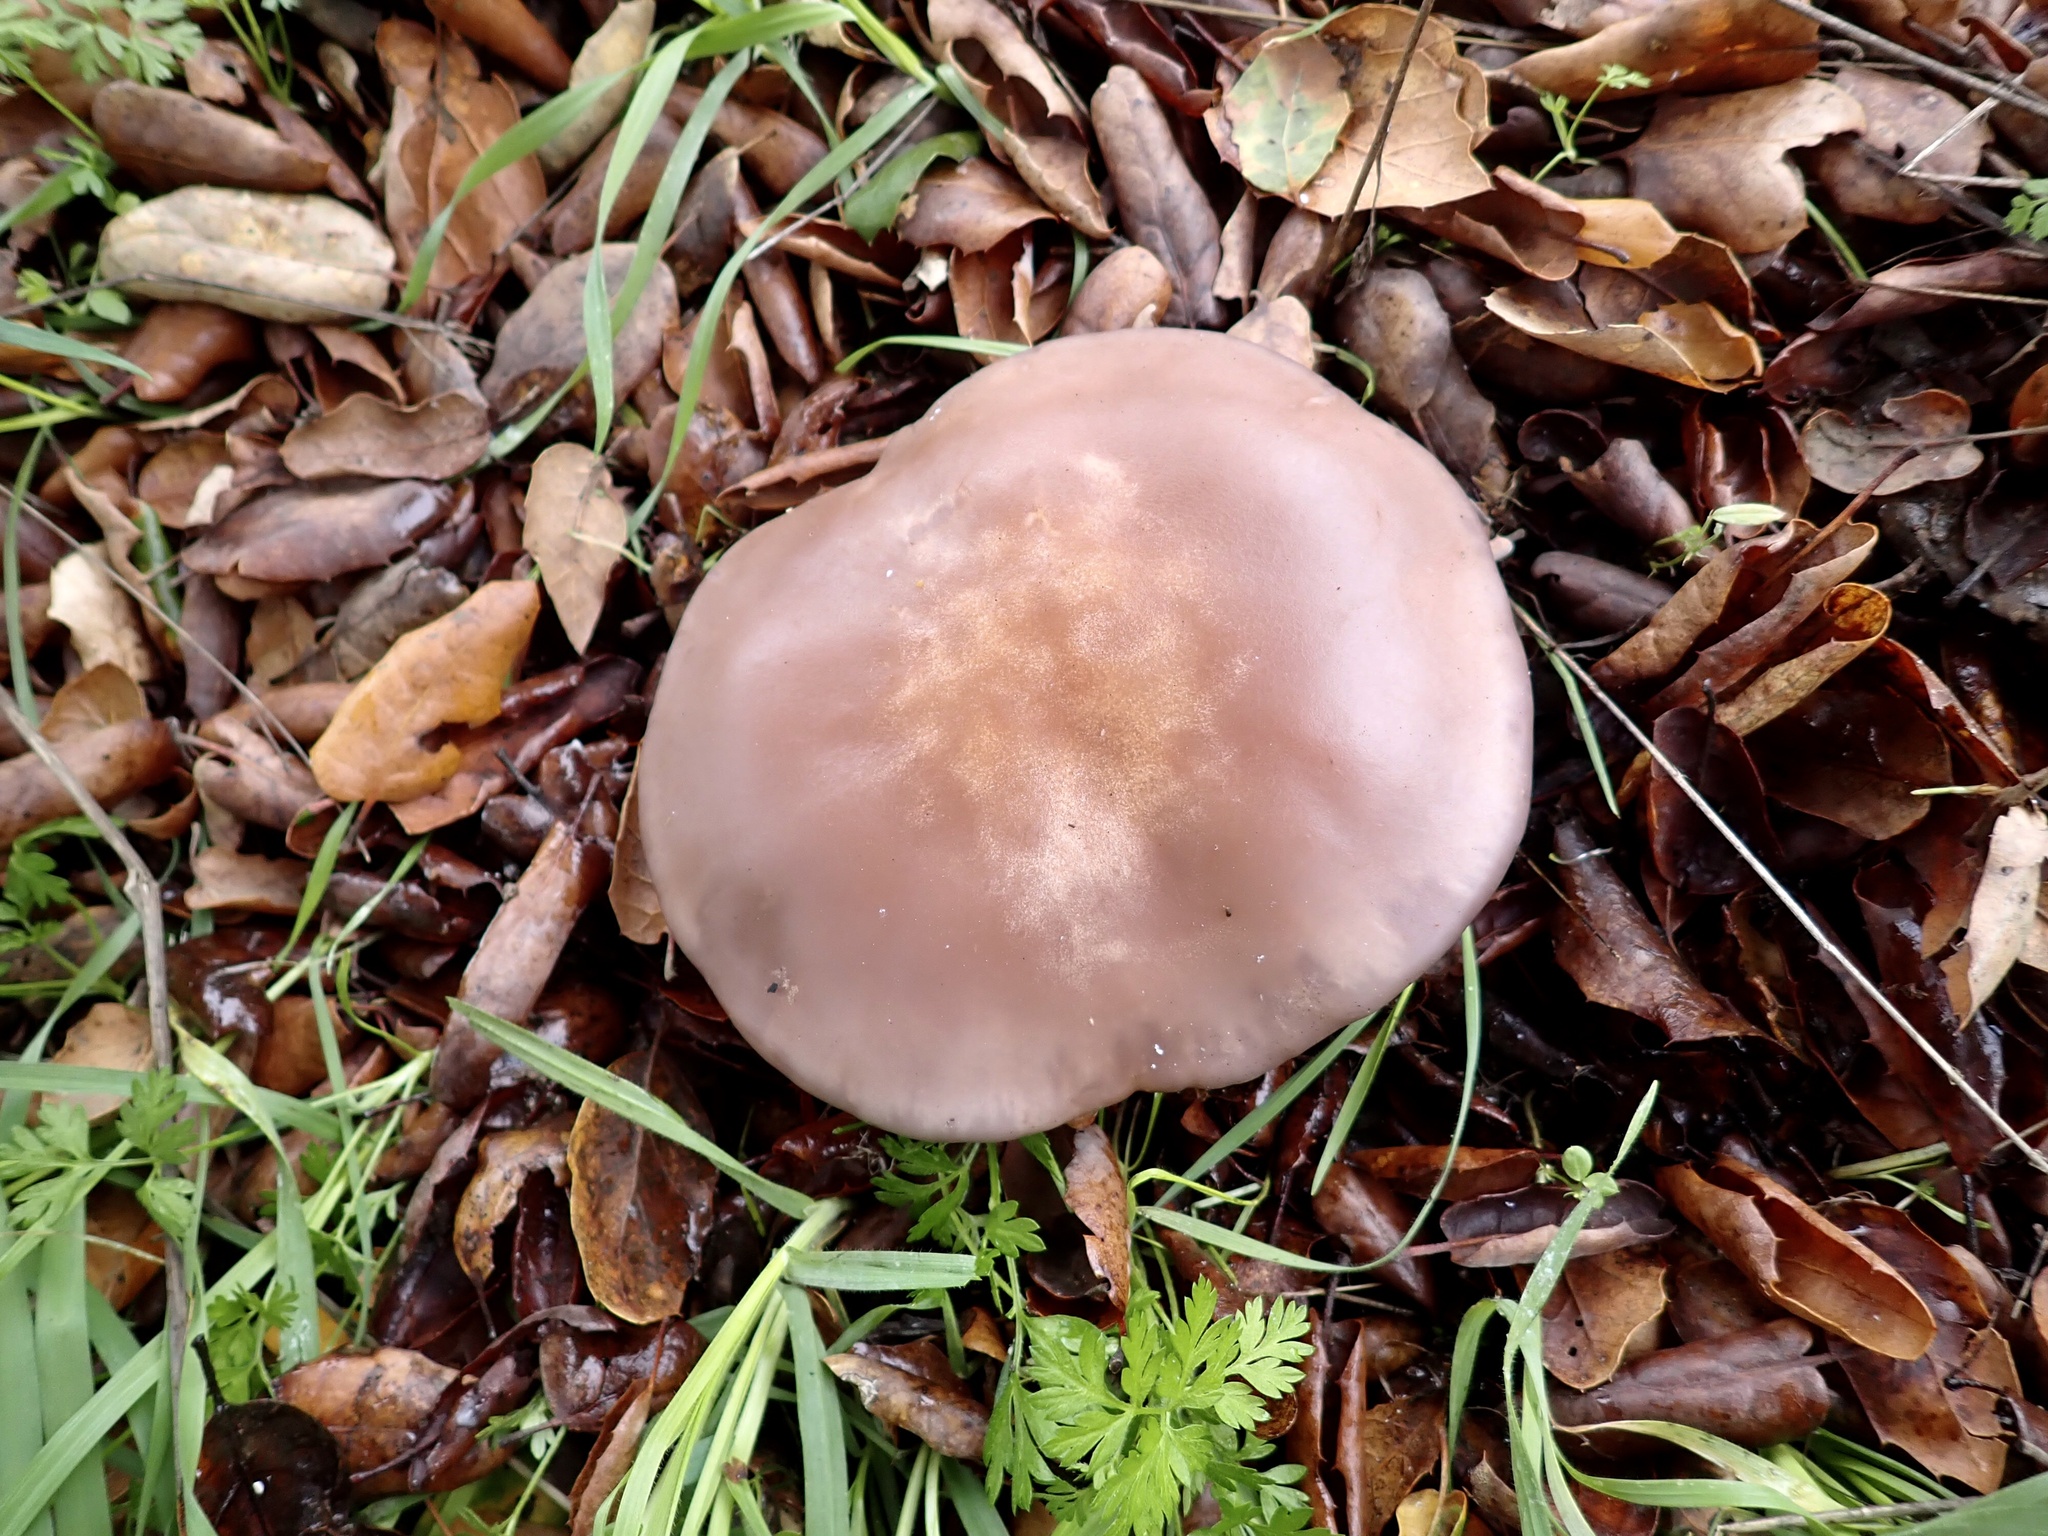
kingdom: Fungi
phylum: Basidiomycota
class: Agaricomycetes
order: Agaricales
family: Tricholomataceae
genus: Collybia
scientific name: Collybia
